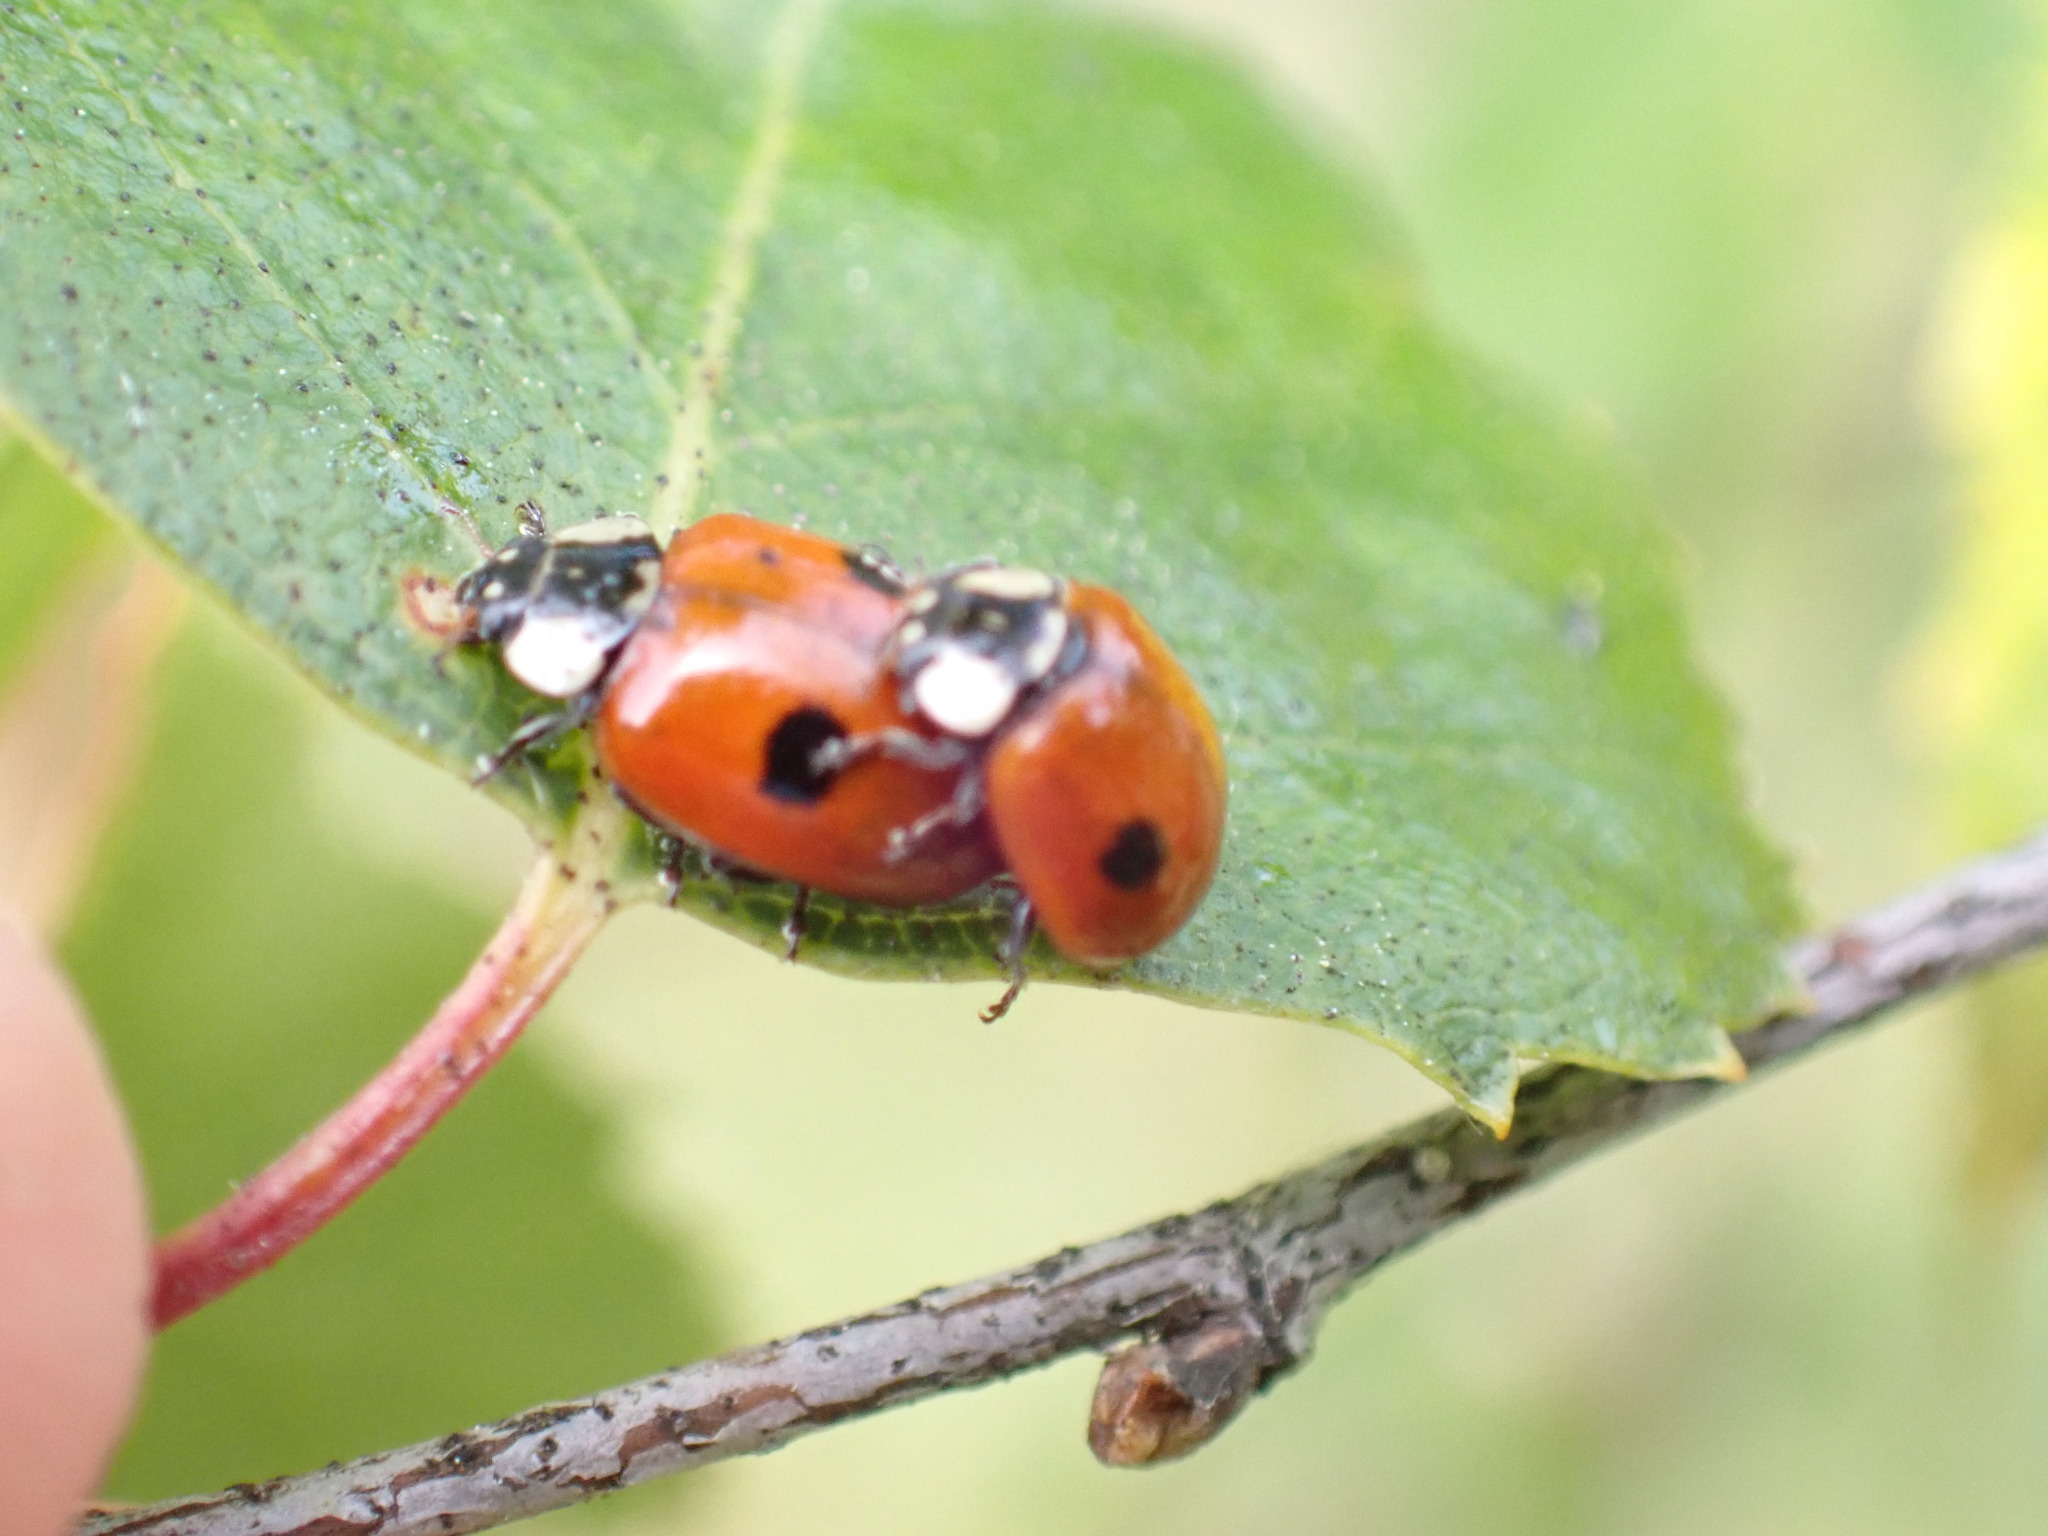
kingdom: Animalia
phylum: Arthropoda
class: Insecta
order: Coleoptera
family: Coccinellidae
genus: Adalia
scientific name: Adalia bipunctata
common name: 2-spot ladybird
